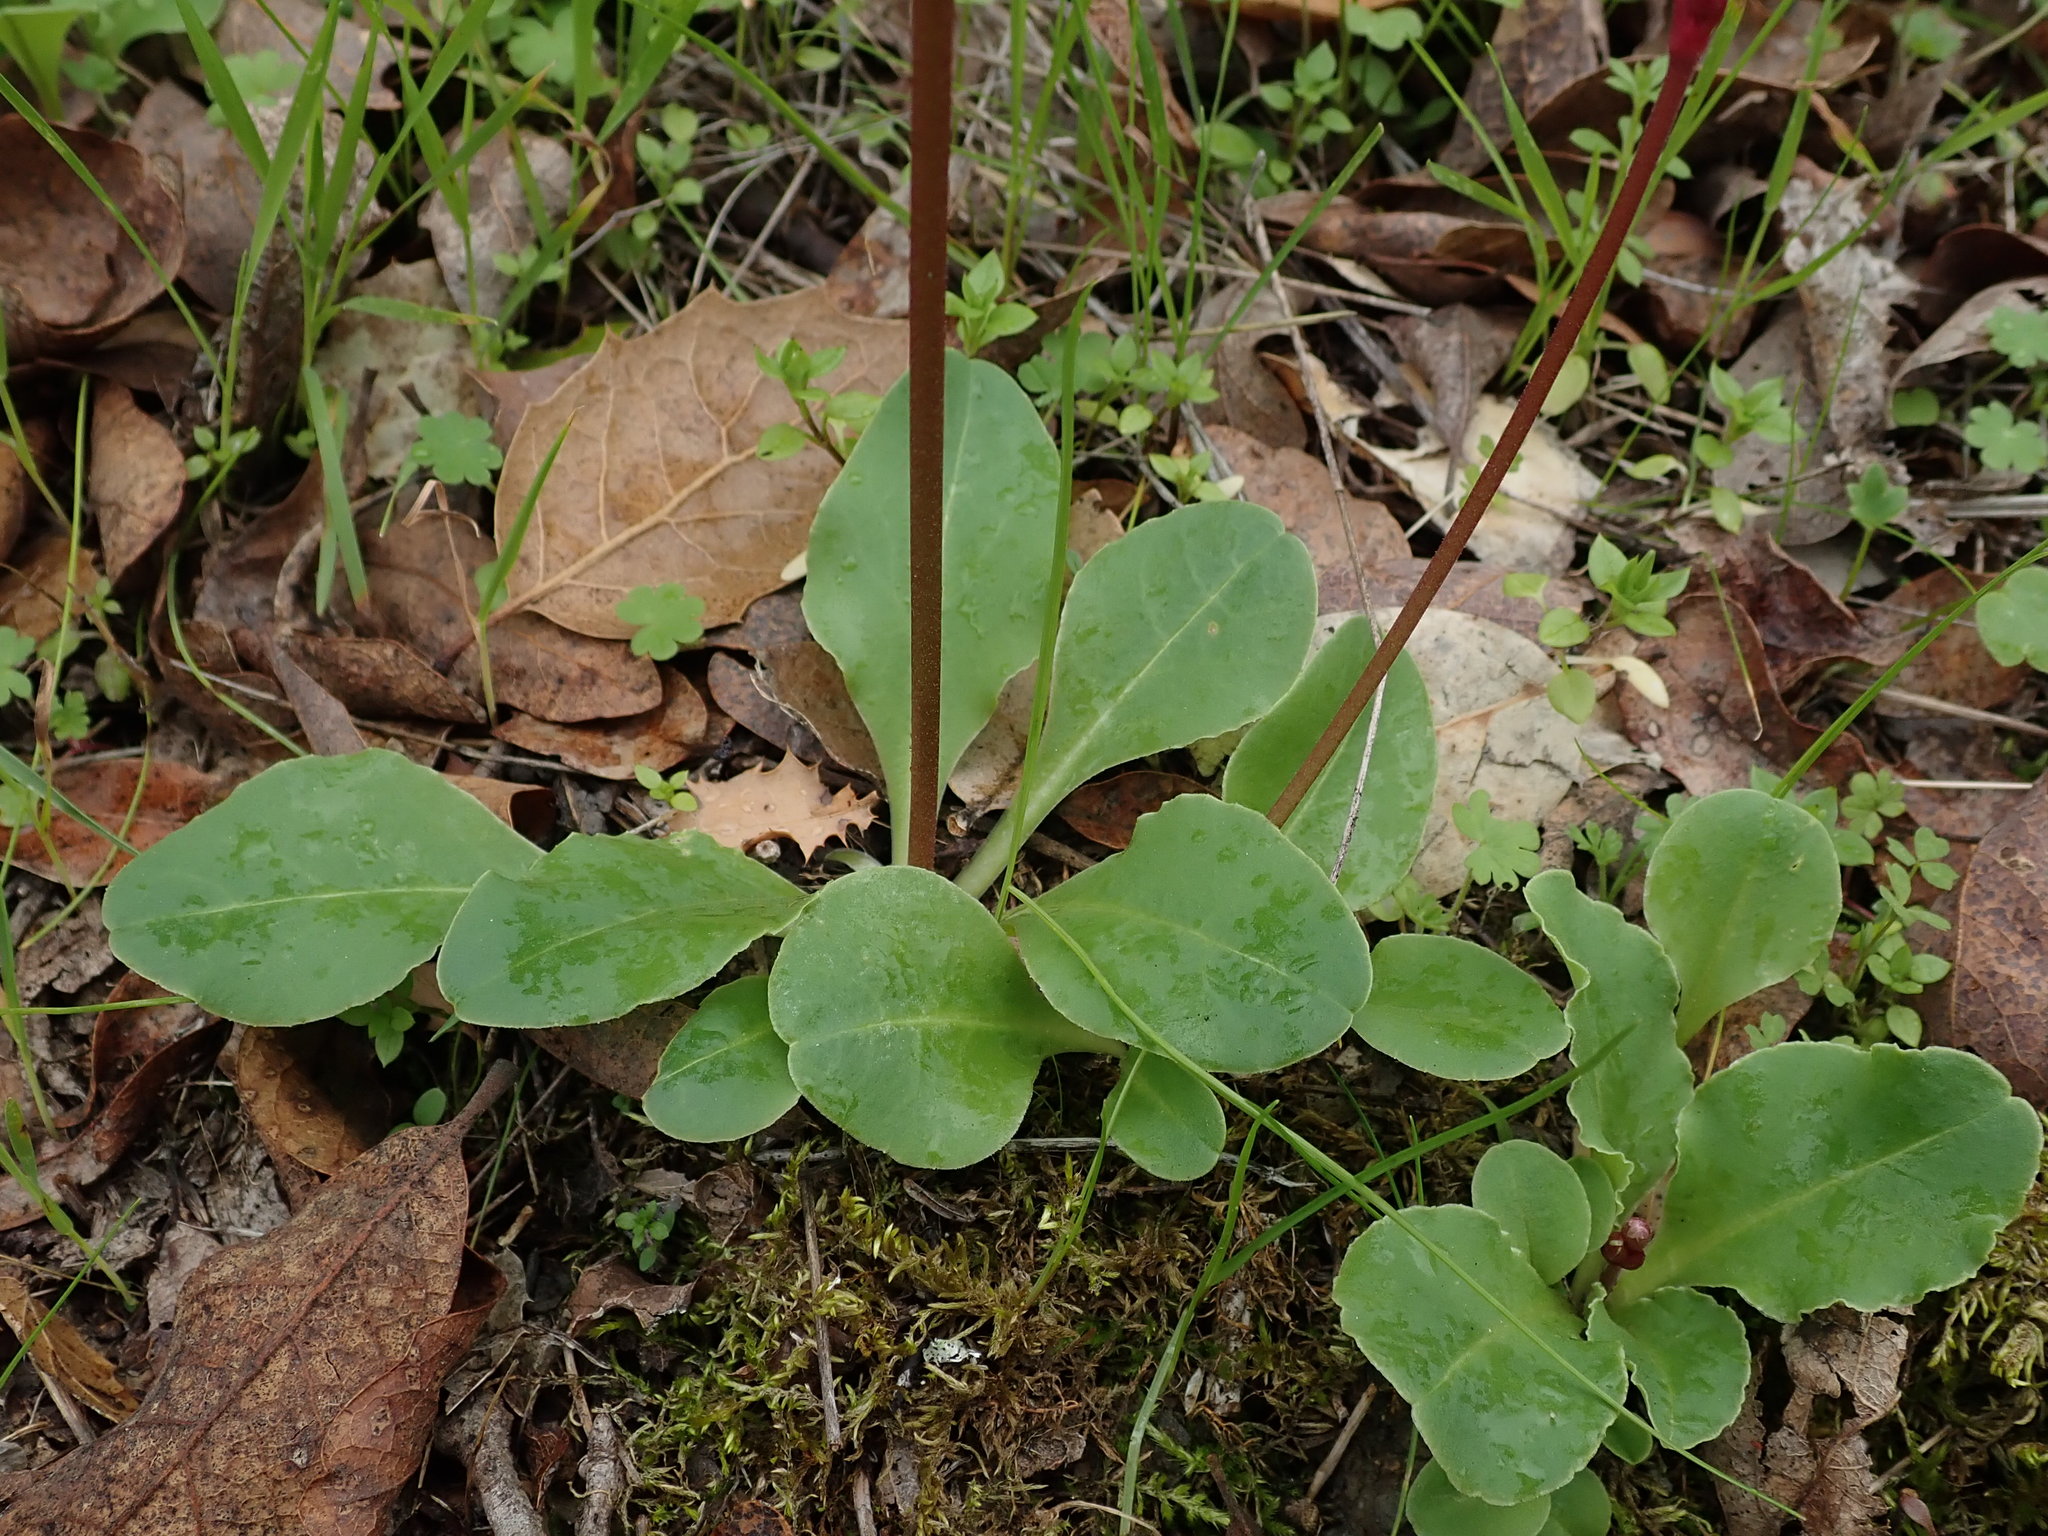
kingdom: Plantae
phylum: Tracheophyta
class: Magnoliopsida
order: Ericales
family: Primulaceae
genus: Dodecatheon
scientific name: Dodecatheon hendersonii
